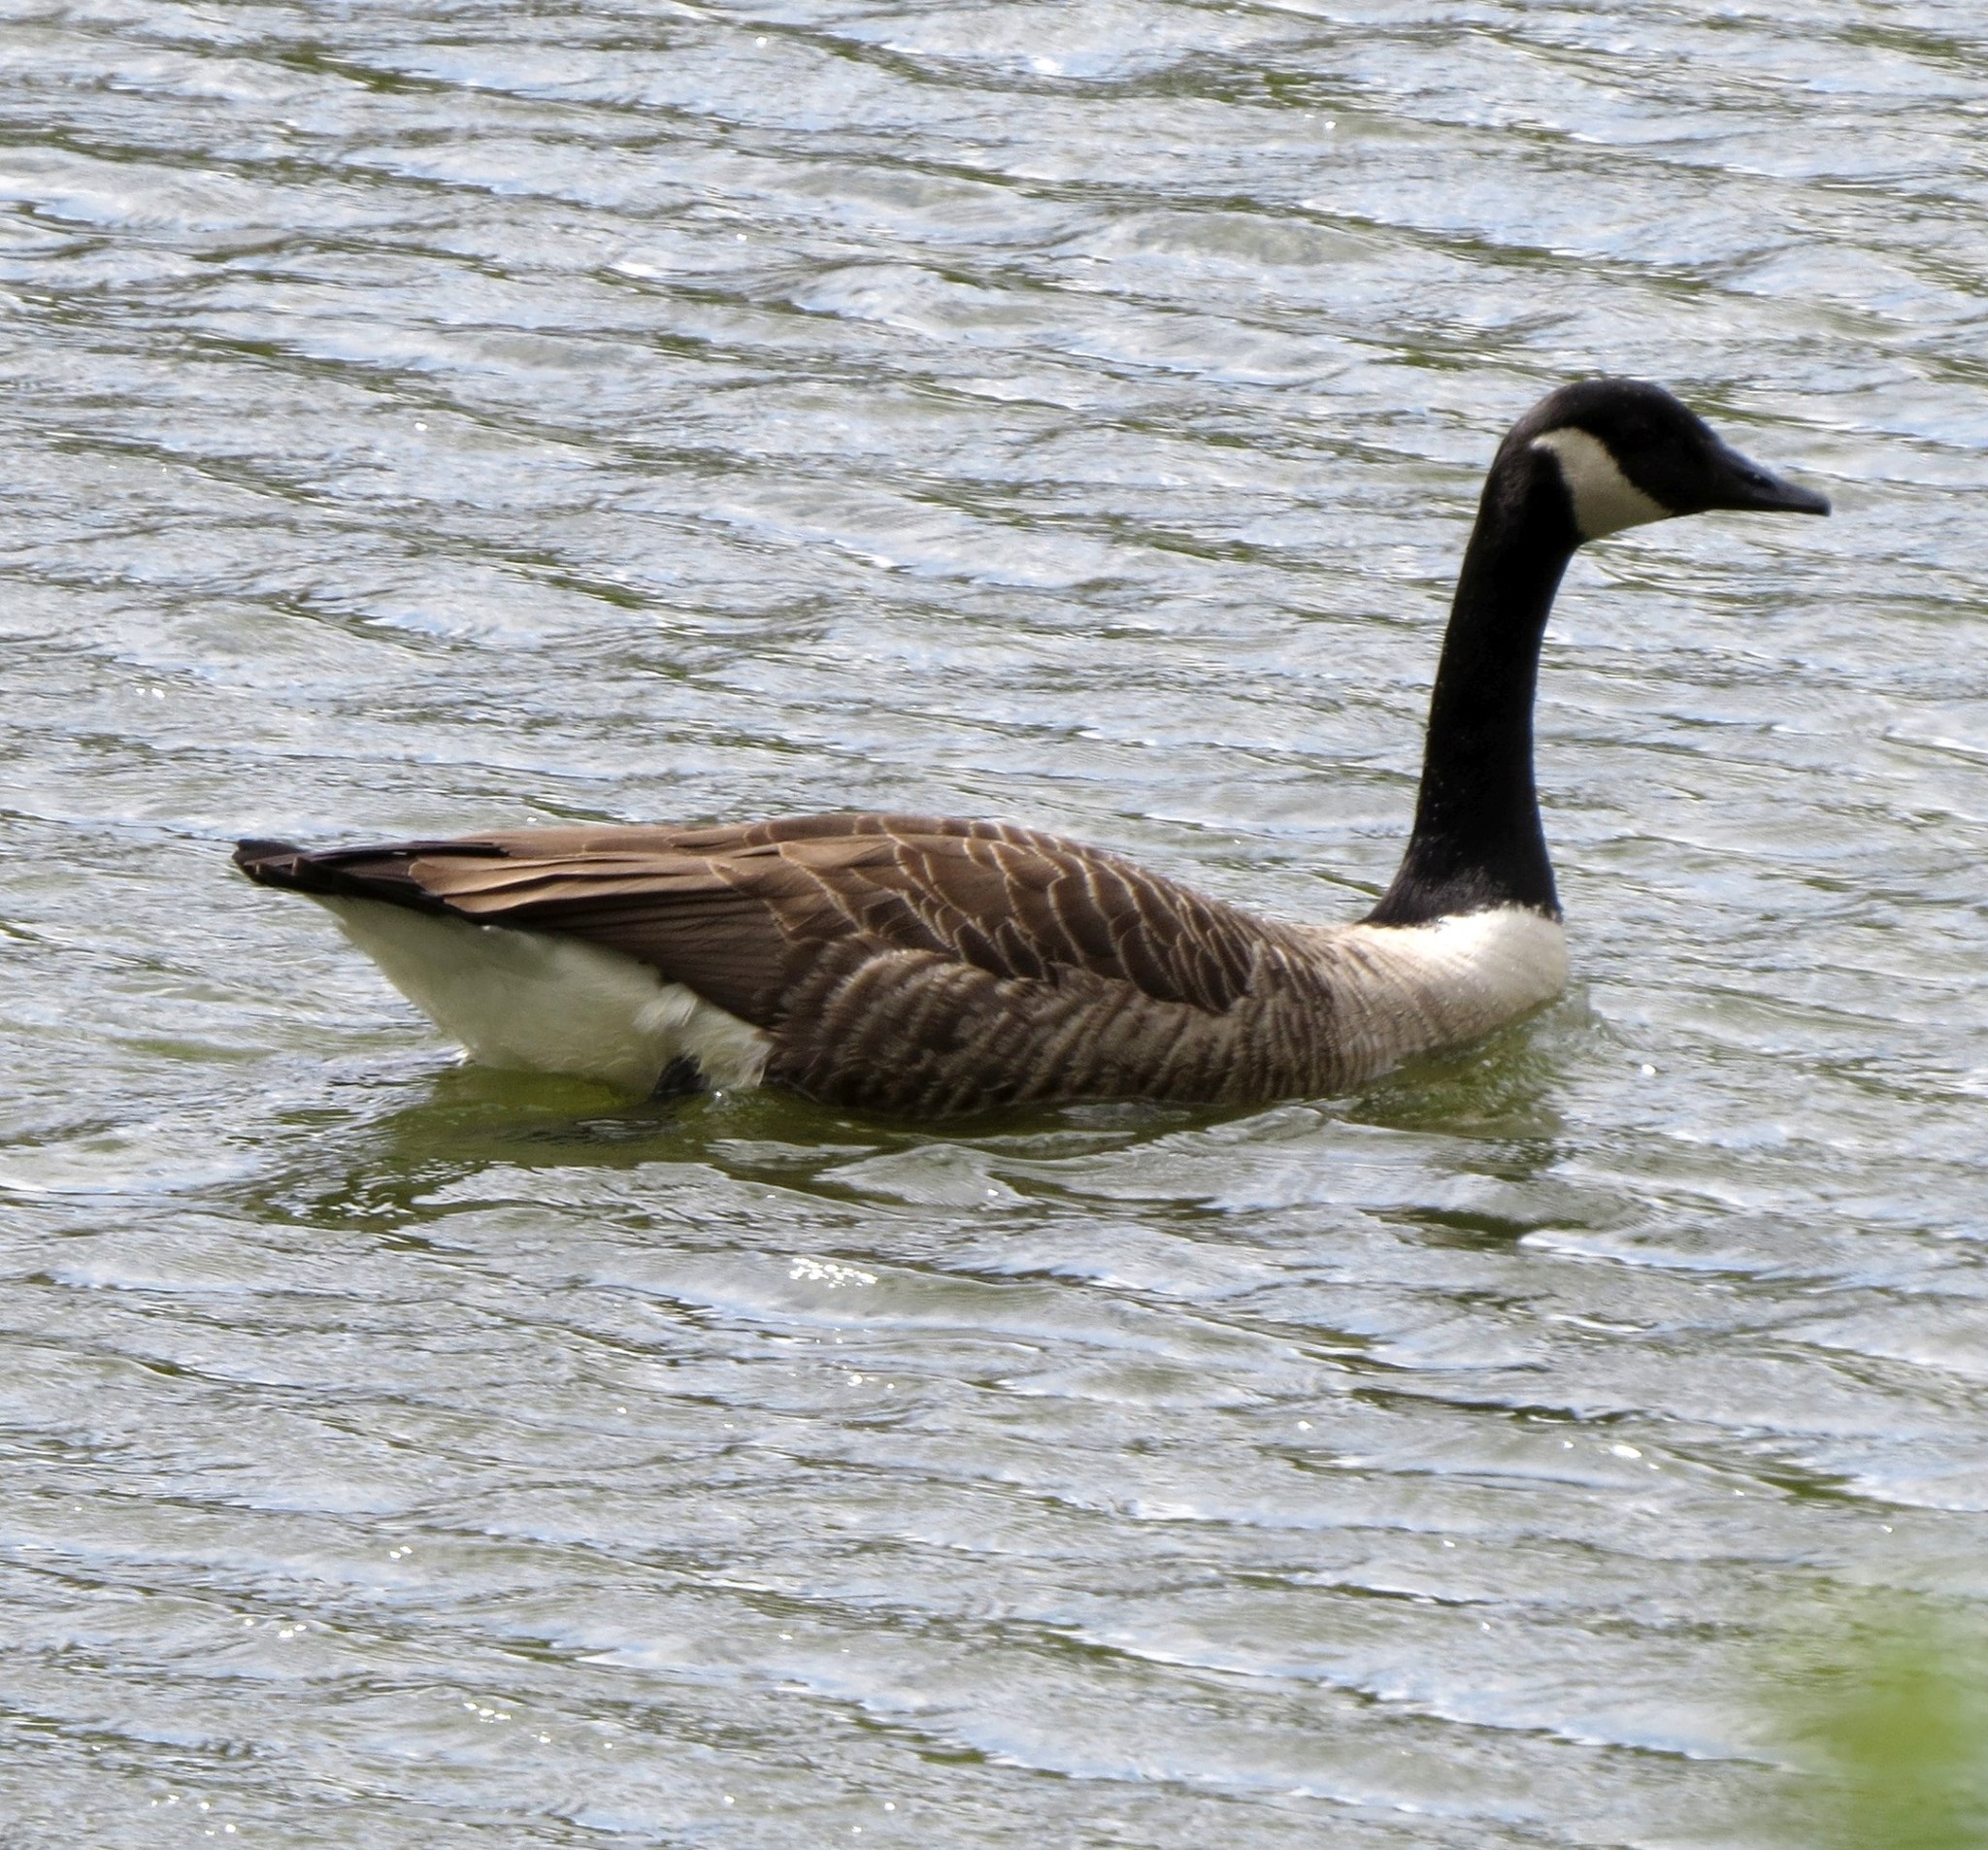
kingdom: Animalia
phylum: Chordata
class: Aves
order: Anseriformes
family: Anatidae
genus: Branta
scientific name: Branta canadensis
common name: Canada goose
